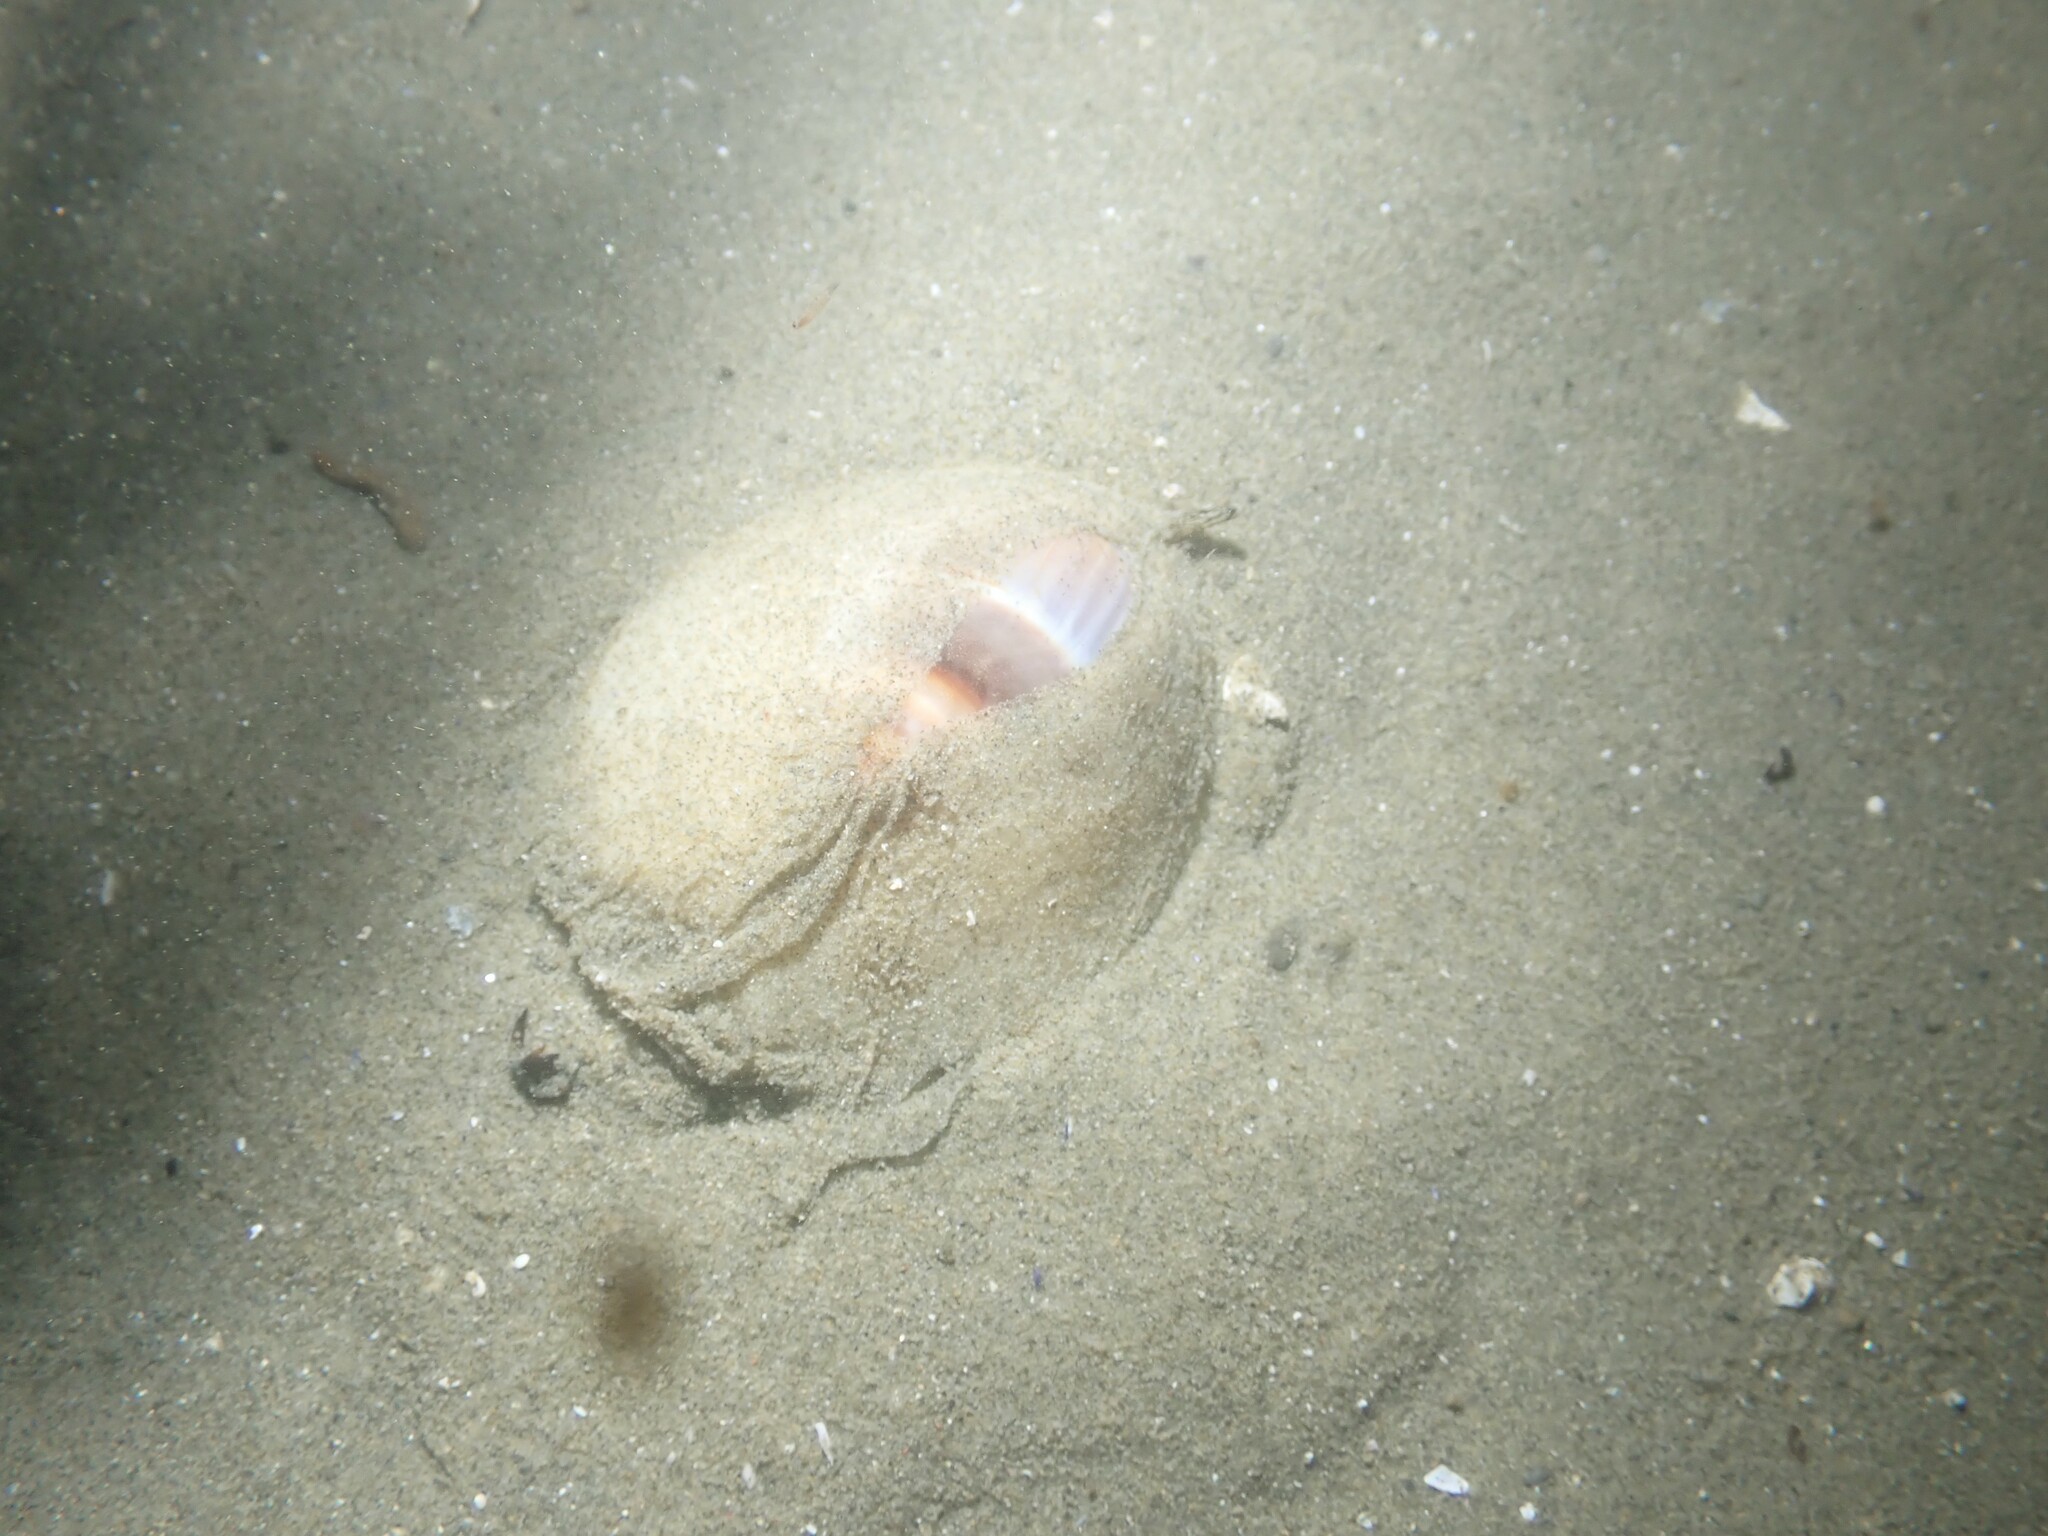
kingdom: Animalia
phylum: Mollusca
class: Gastropoda
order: Neogastropoda
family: Ancillariidae
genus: Amalda
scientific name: Amalda australis
